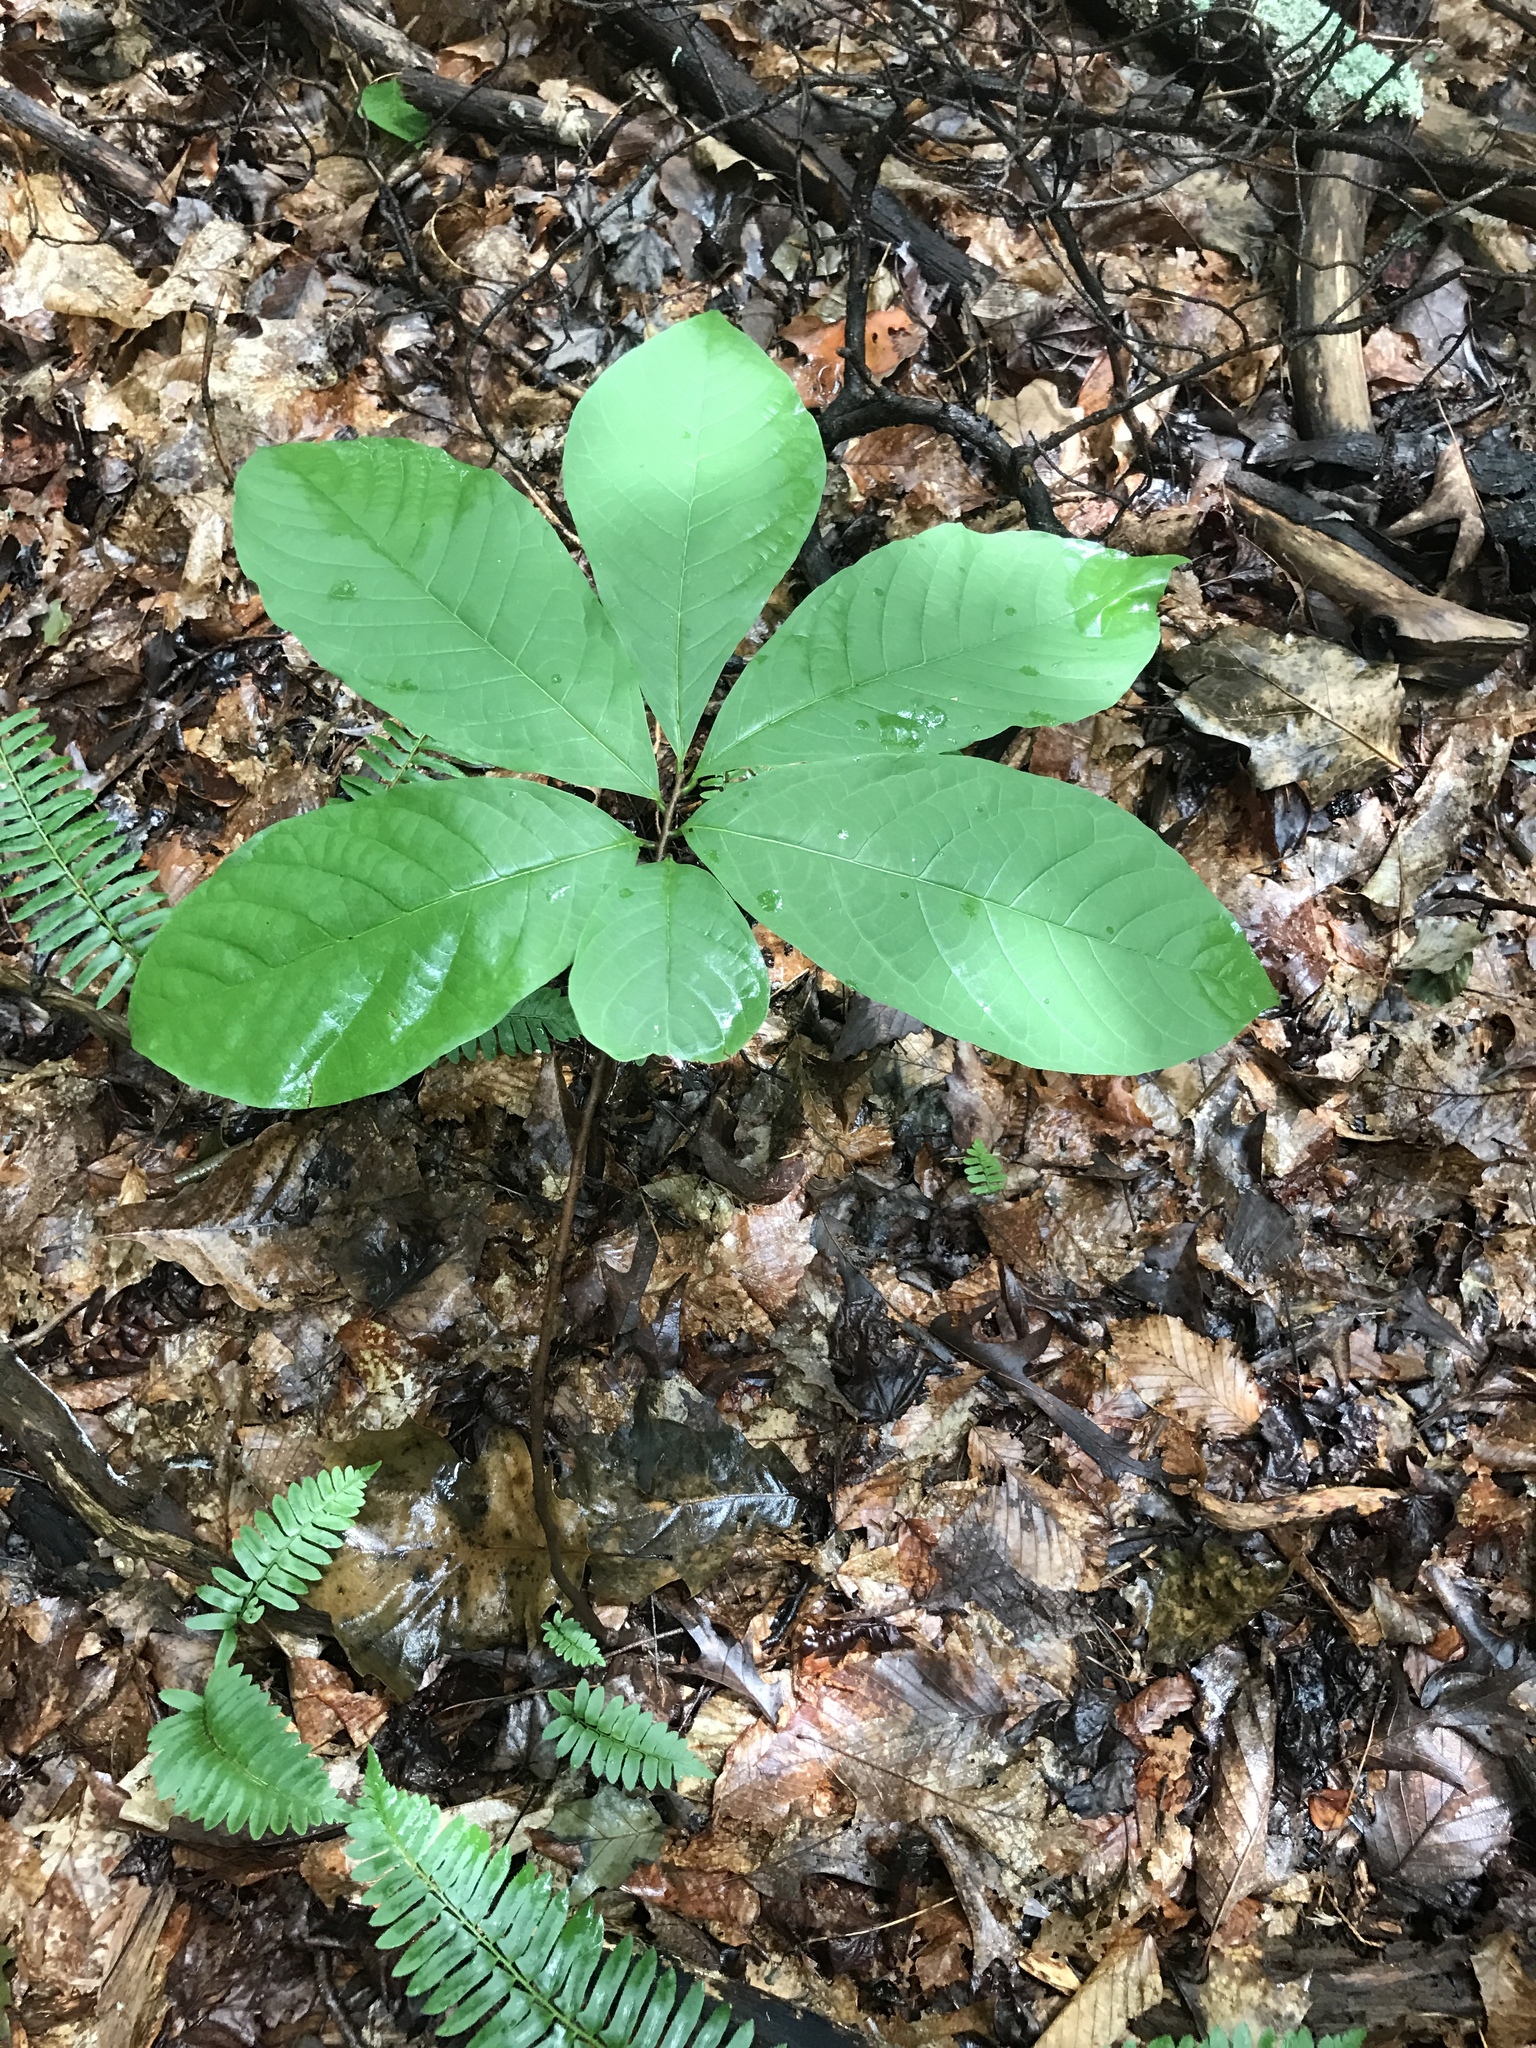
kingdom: Plantae
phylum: Tracheophyta
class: Magnoliopsida
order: Magnoliales
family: Annonaceae
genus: Asimina
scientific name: Asimina triloba
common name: Dog-banana
